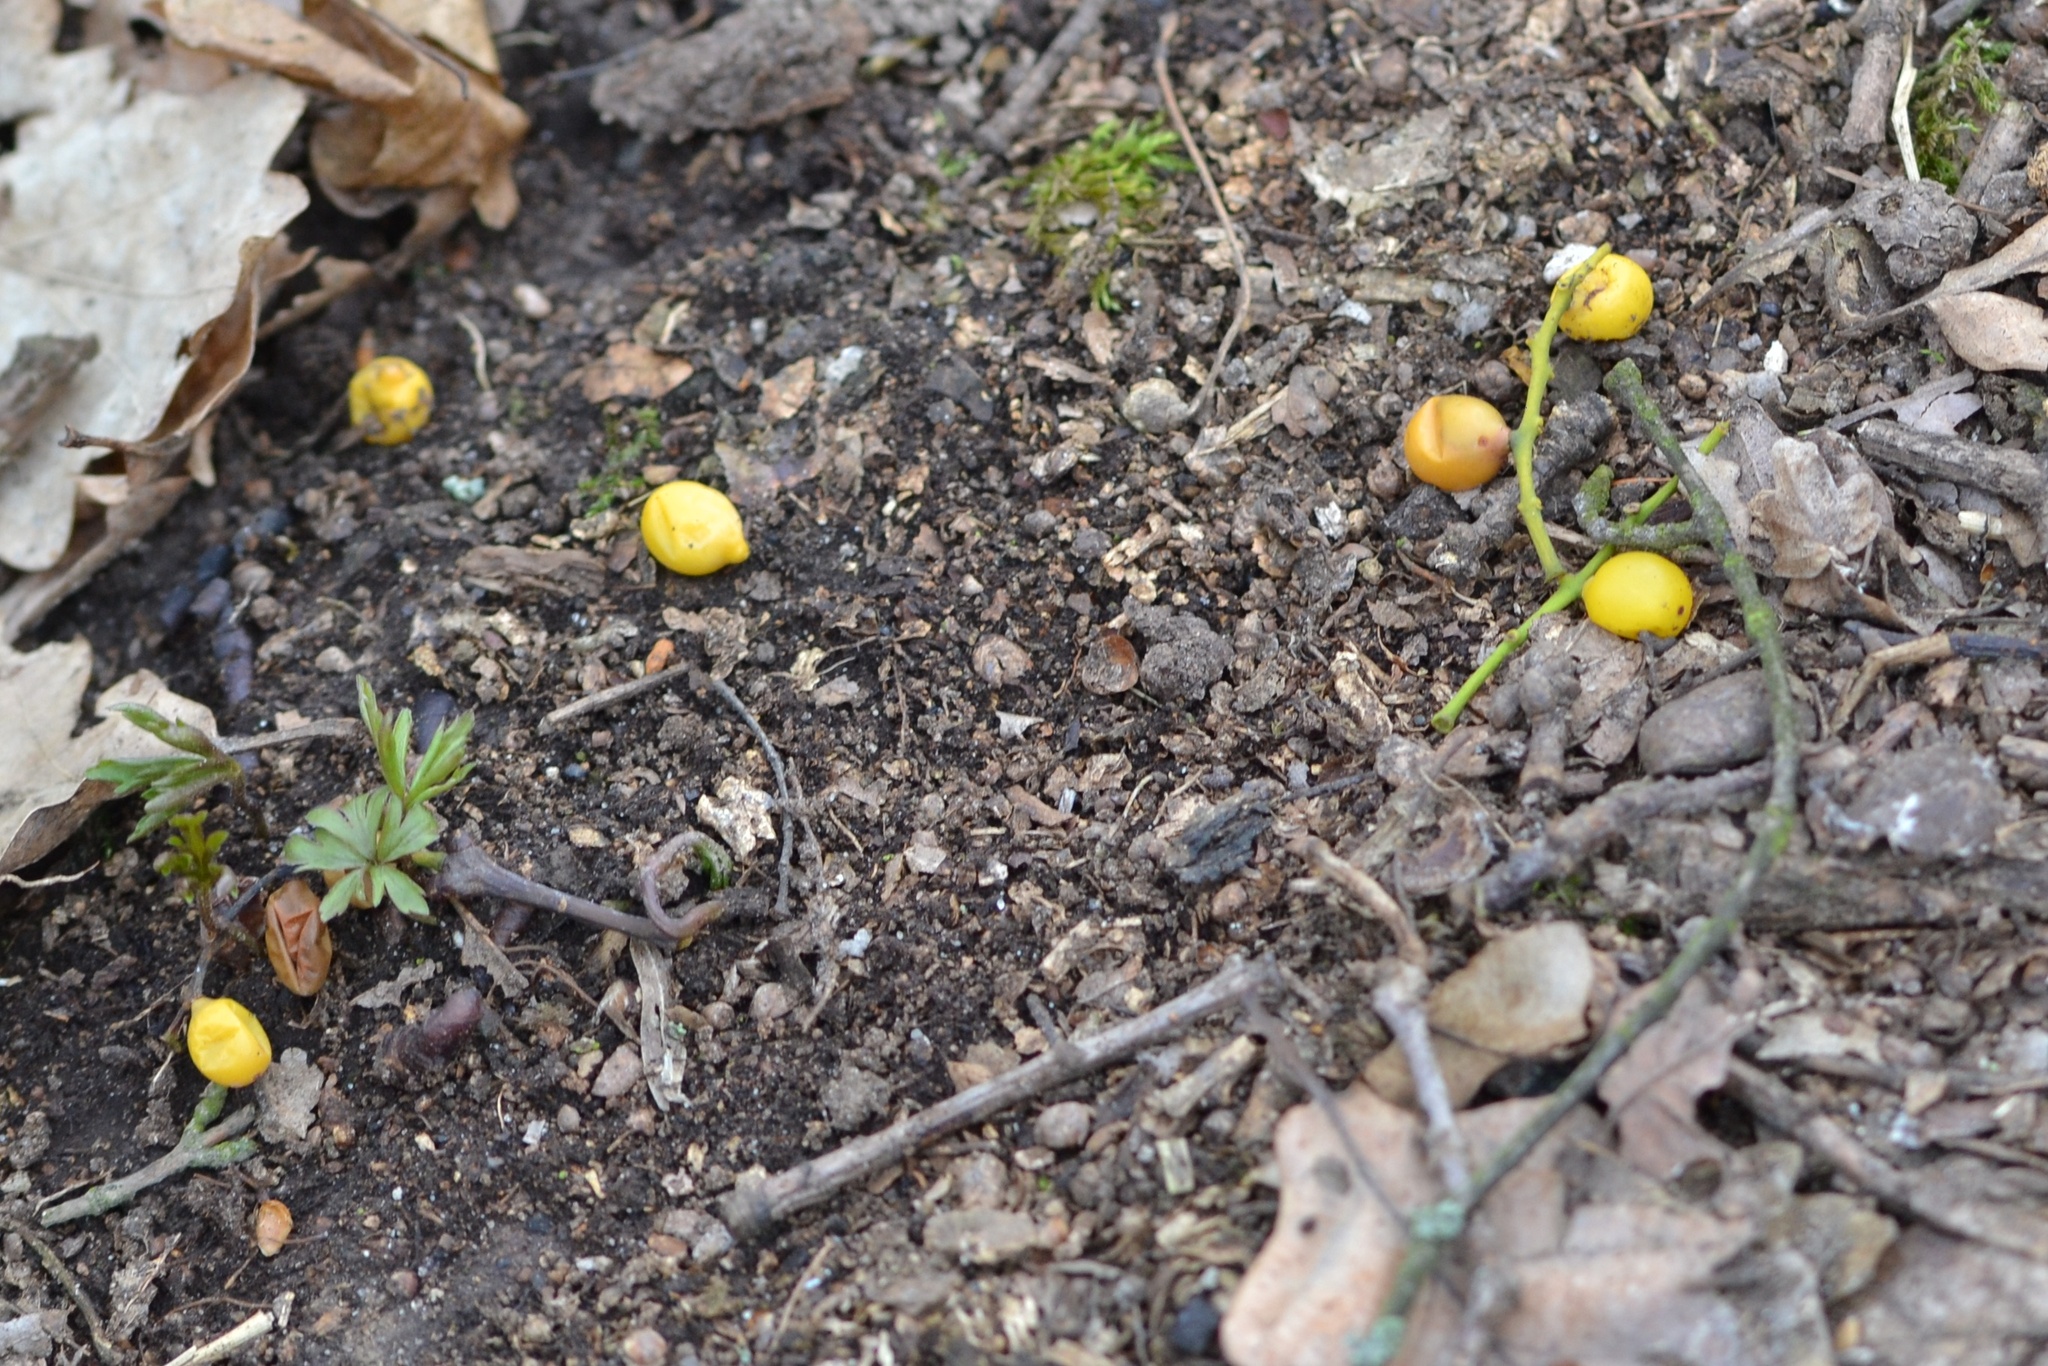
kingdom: Plantae
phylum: Tracheophyta
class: Magnoliopsida
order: Santalales
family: Loranthaceae
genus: Loranthus
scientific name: Loranthus europaeus
